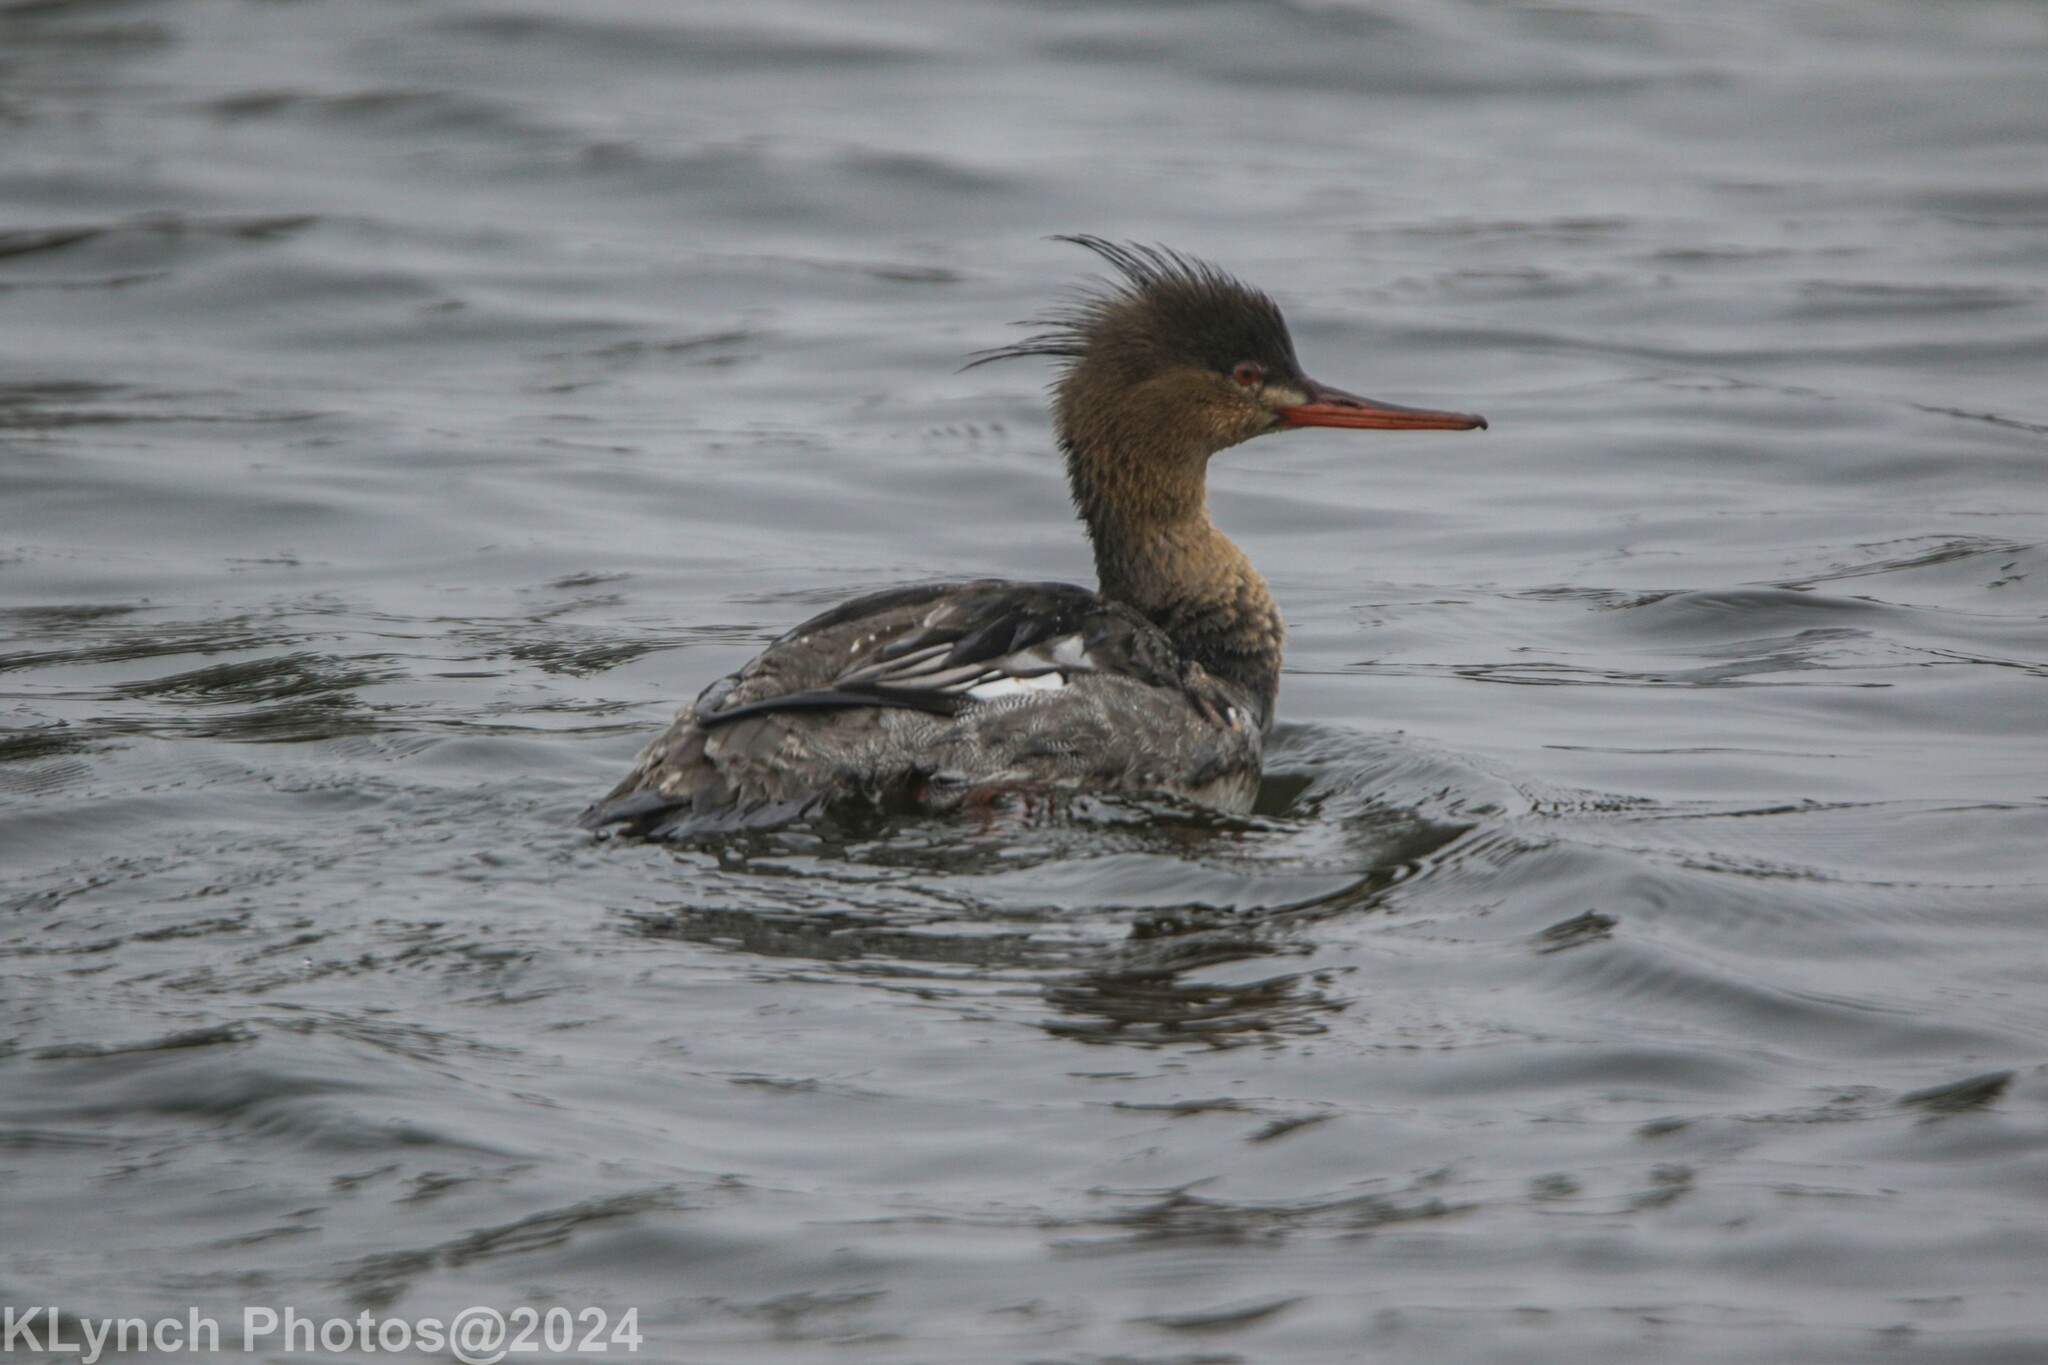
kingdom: Animalia
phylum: Chordata
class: Aves
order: Anseriformes
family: Anatidae
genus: Mergus
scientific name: Mergus serrator
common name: Red-breasted merganser
